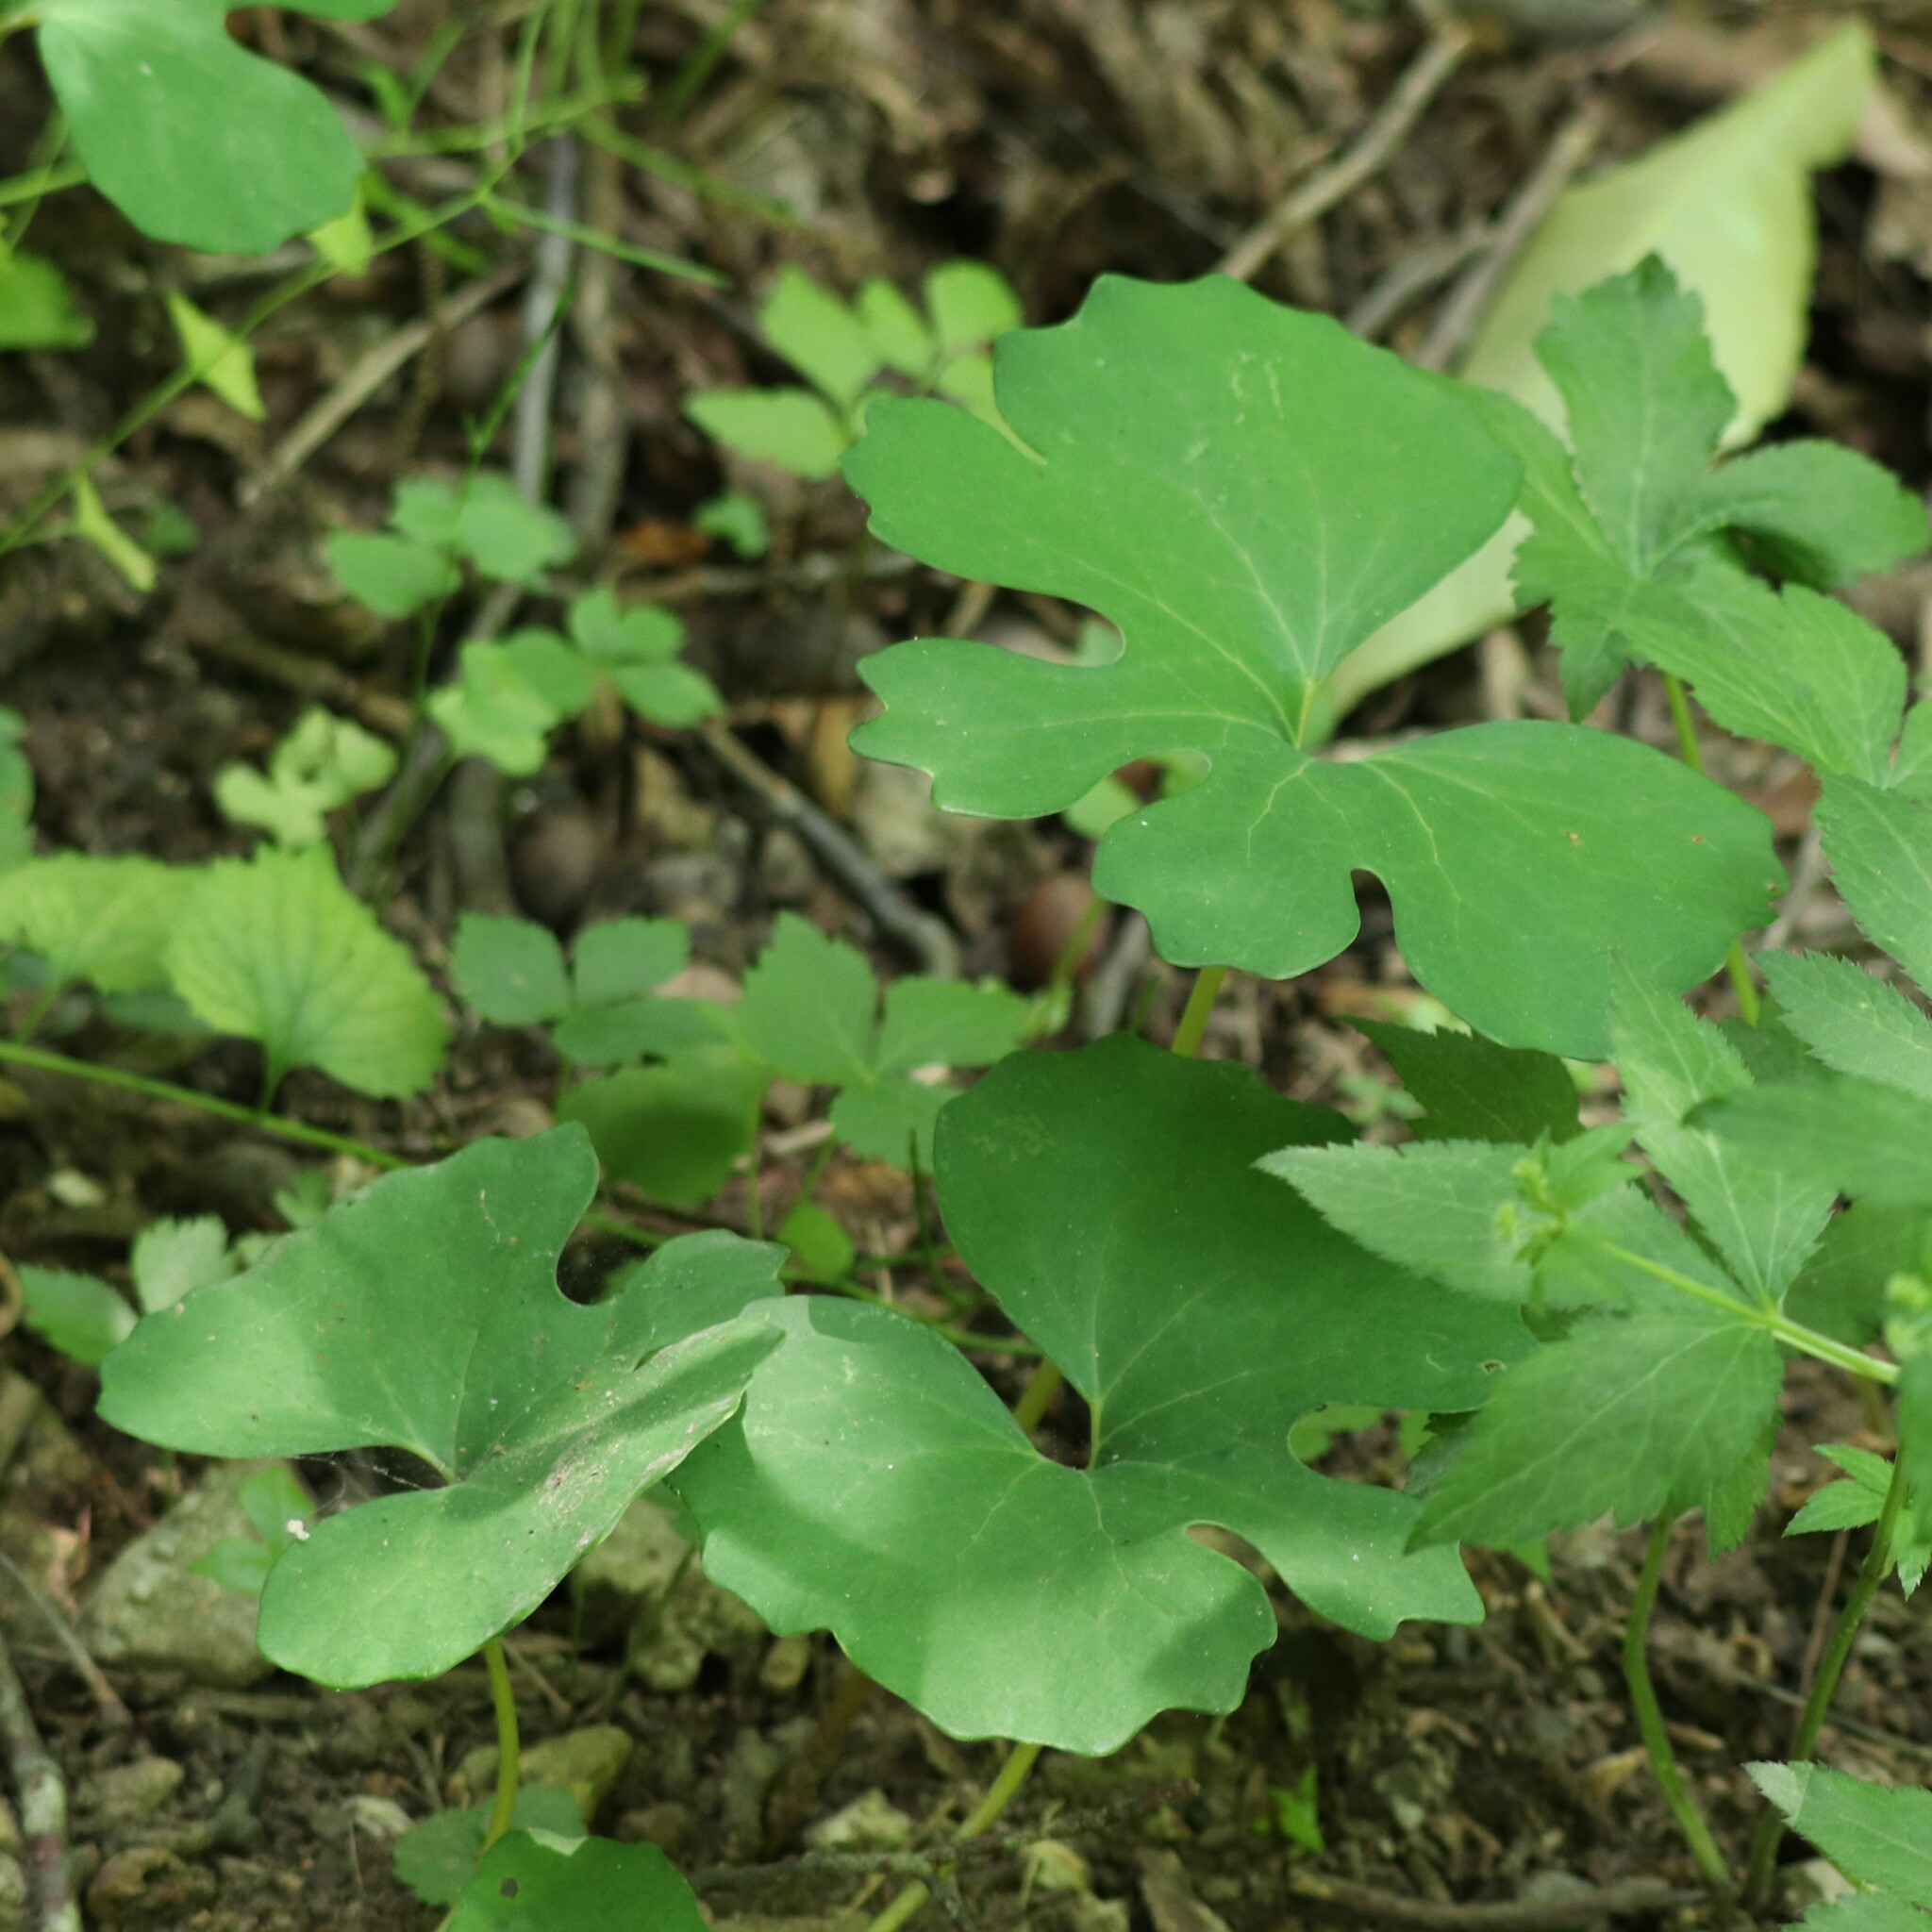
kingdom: Plantae
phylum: Tracheophyta
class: Magnoliopsida
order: Ranunculales
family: Papaveraceae
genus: Sanguinaria
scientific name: Sanguinaria canadensis
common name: Bloodroot
